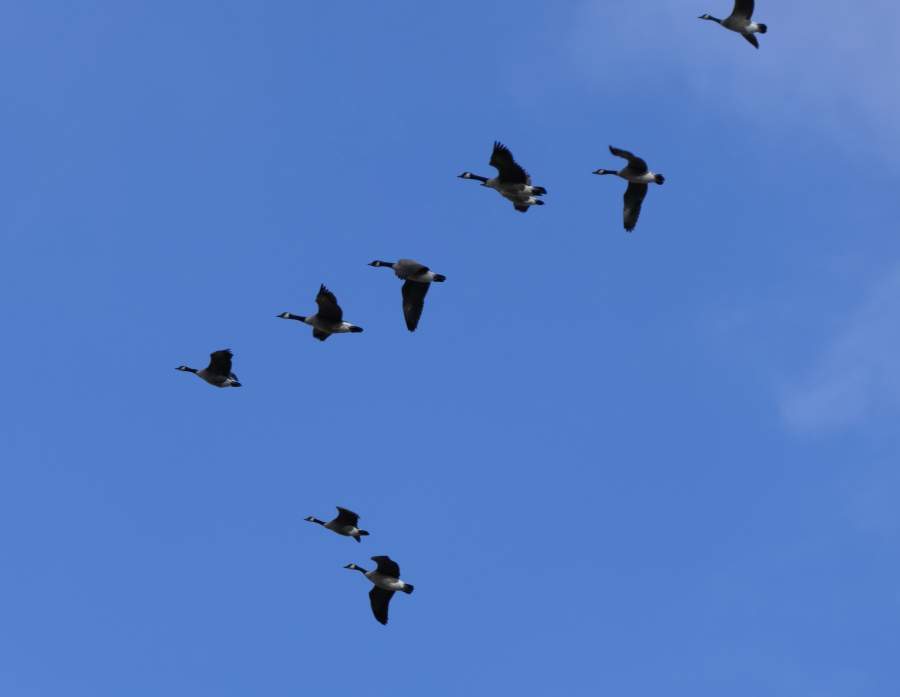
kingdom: Animalia
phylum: Chordata
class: Aves
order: Anseriformes
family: Anatidae
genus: Branta
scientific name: Branta canadensis
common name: Canada goose
